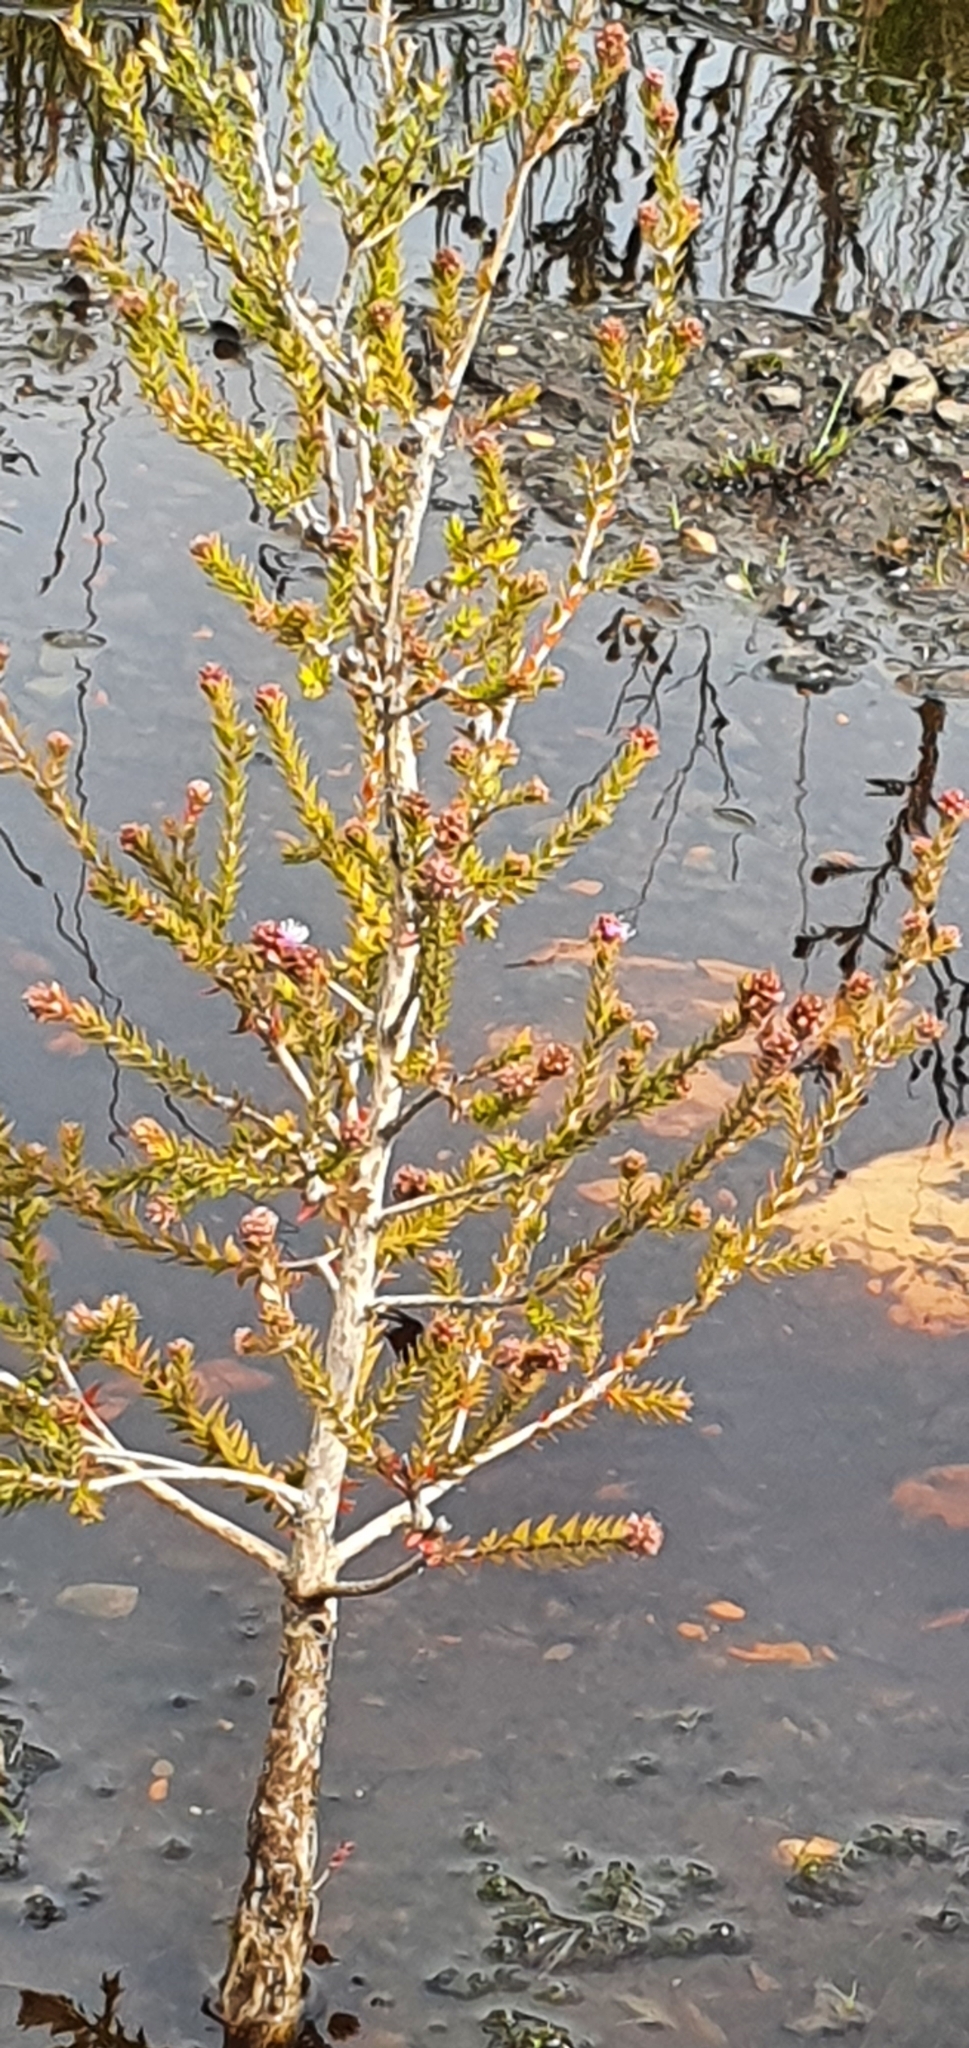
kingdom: Plantae
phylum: Tracheophyta
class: Magnoliopsida
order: Myrtales
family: Myrtaceae
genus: Melaleuca
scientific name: Melaleuca squamea
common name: Swamp melaleuca
